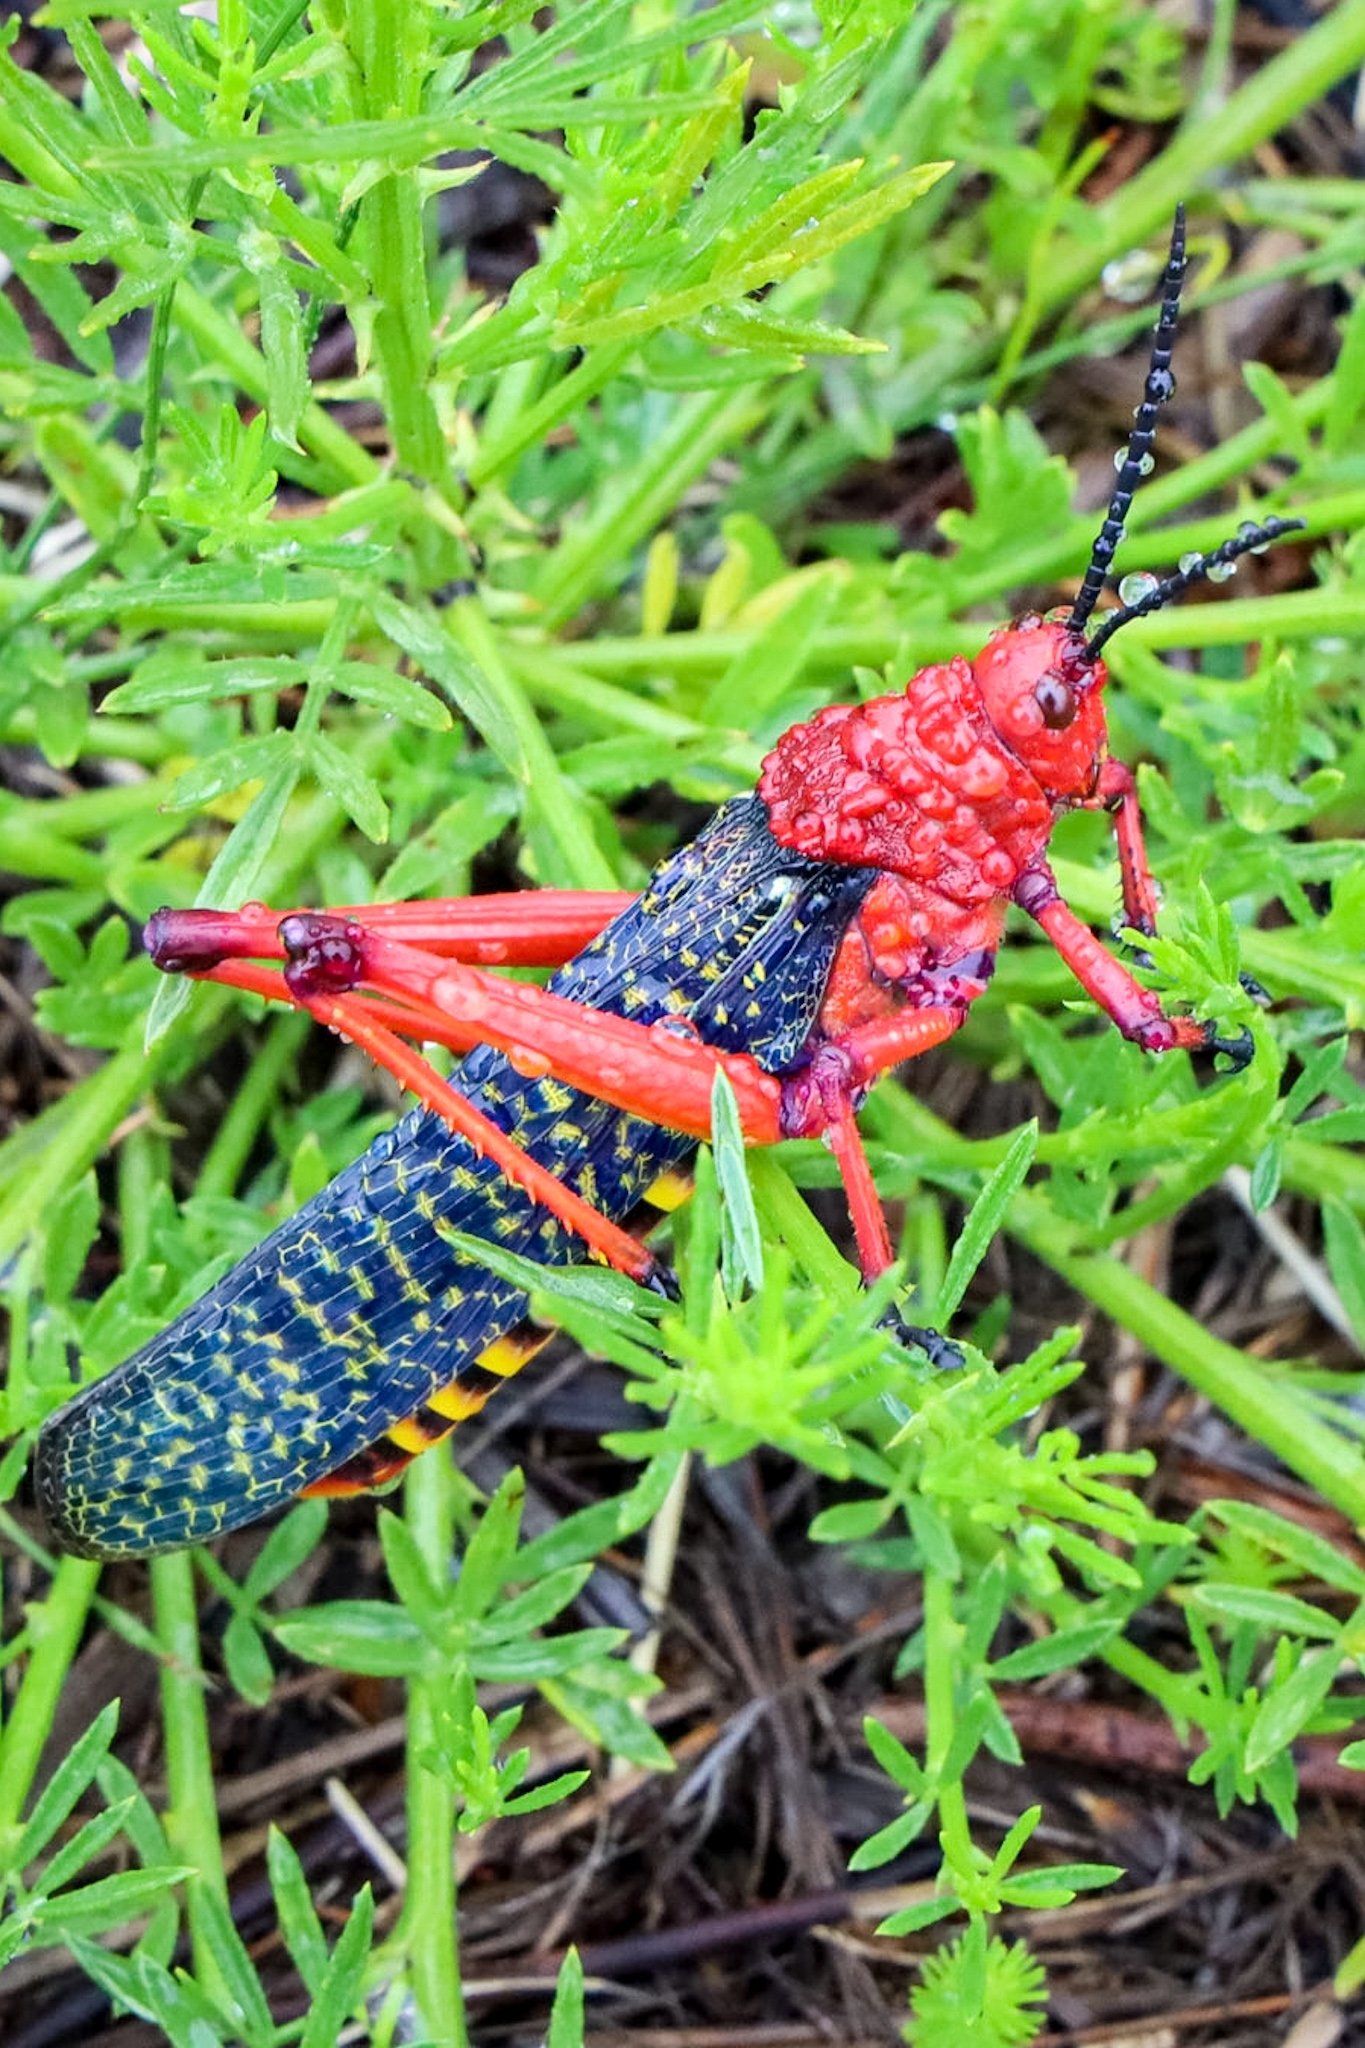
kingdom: Animalia
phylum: Arthropoda
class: Insecta
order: Orthoptera
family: Pyrgomorphidae
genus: Phymateus
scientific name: Phymateus morbillosus
